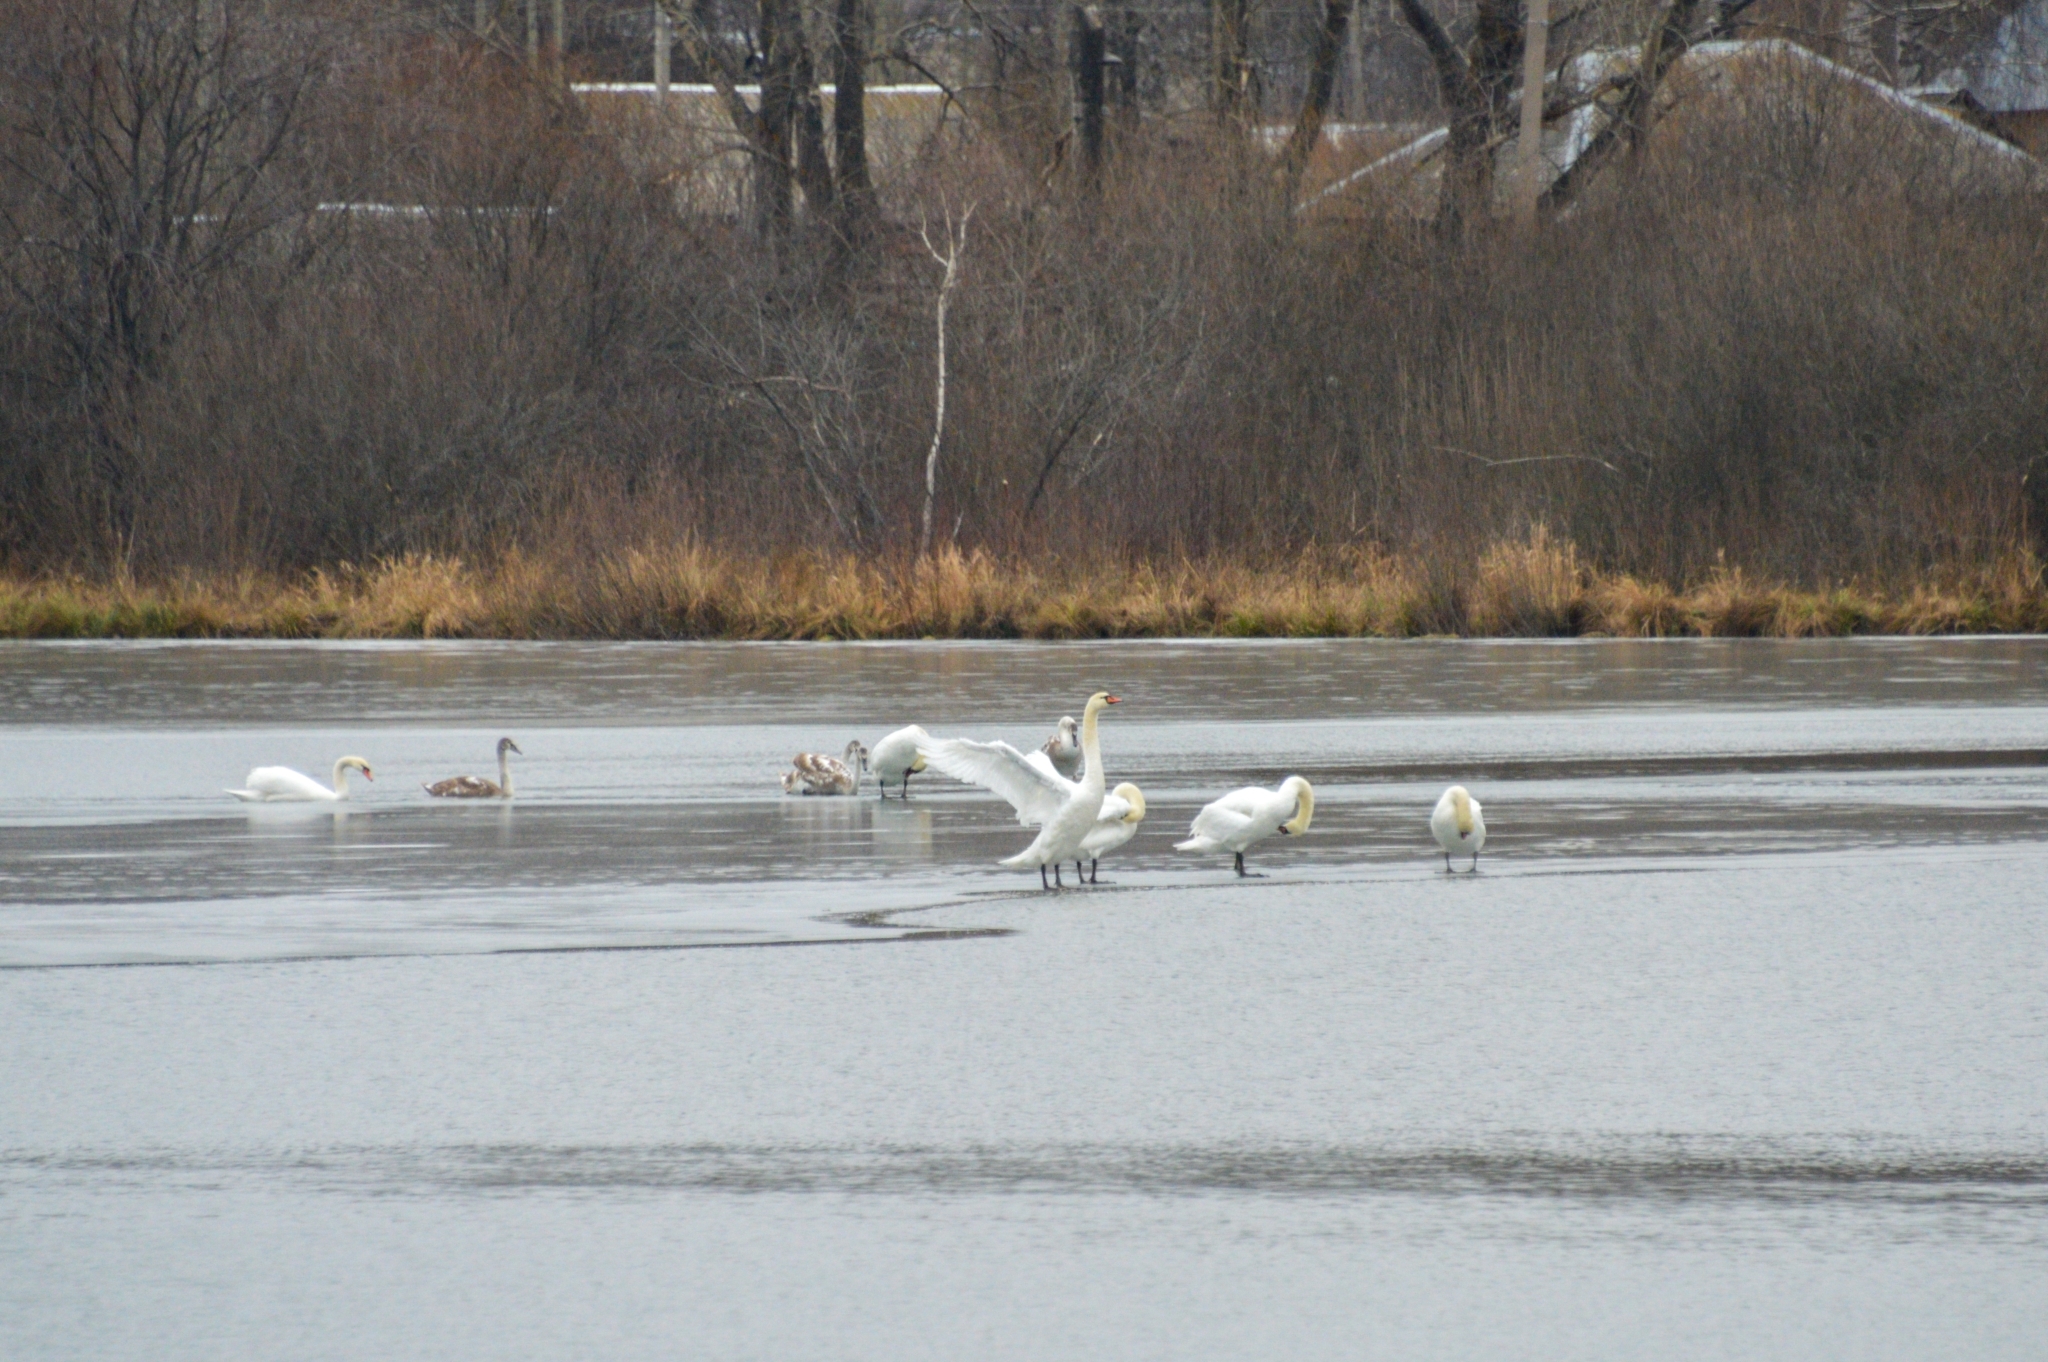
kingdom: Animalia
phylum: Chordata
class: Aves
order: Anseriformes
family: Anatidae
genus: Cygnus
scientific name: Cygnus olor
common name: Mute swan
